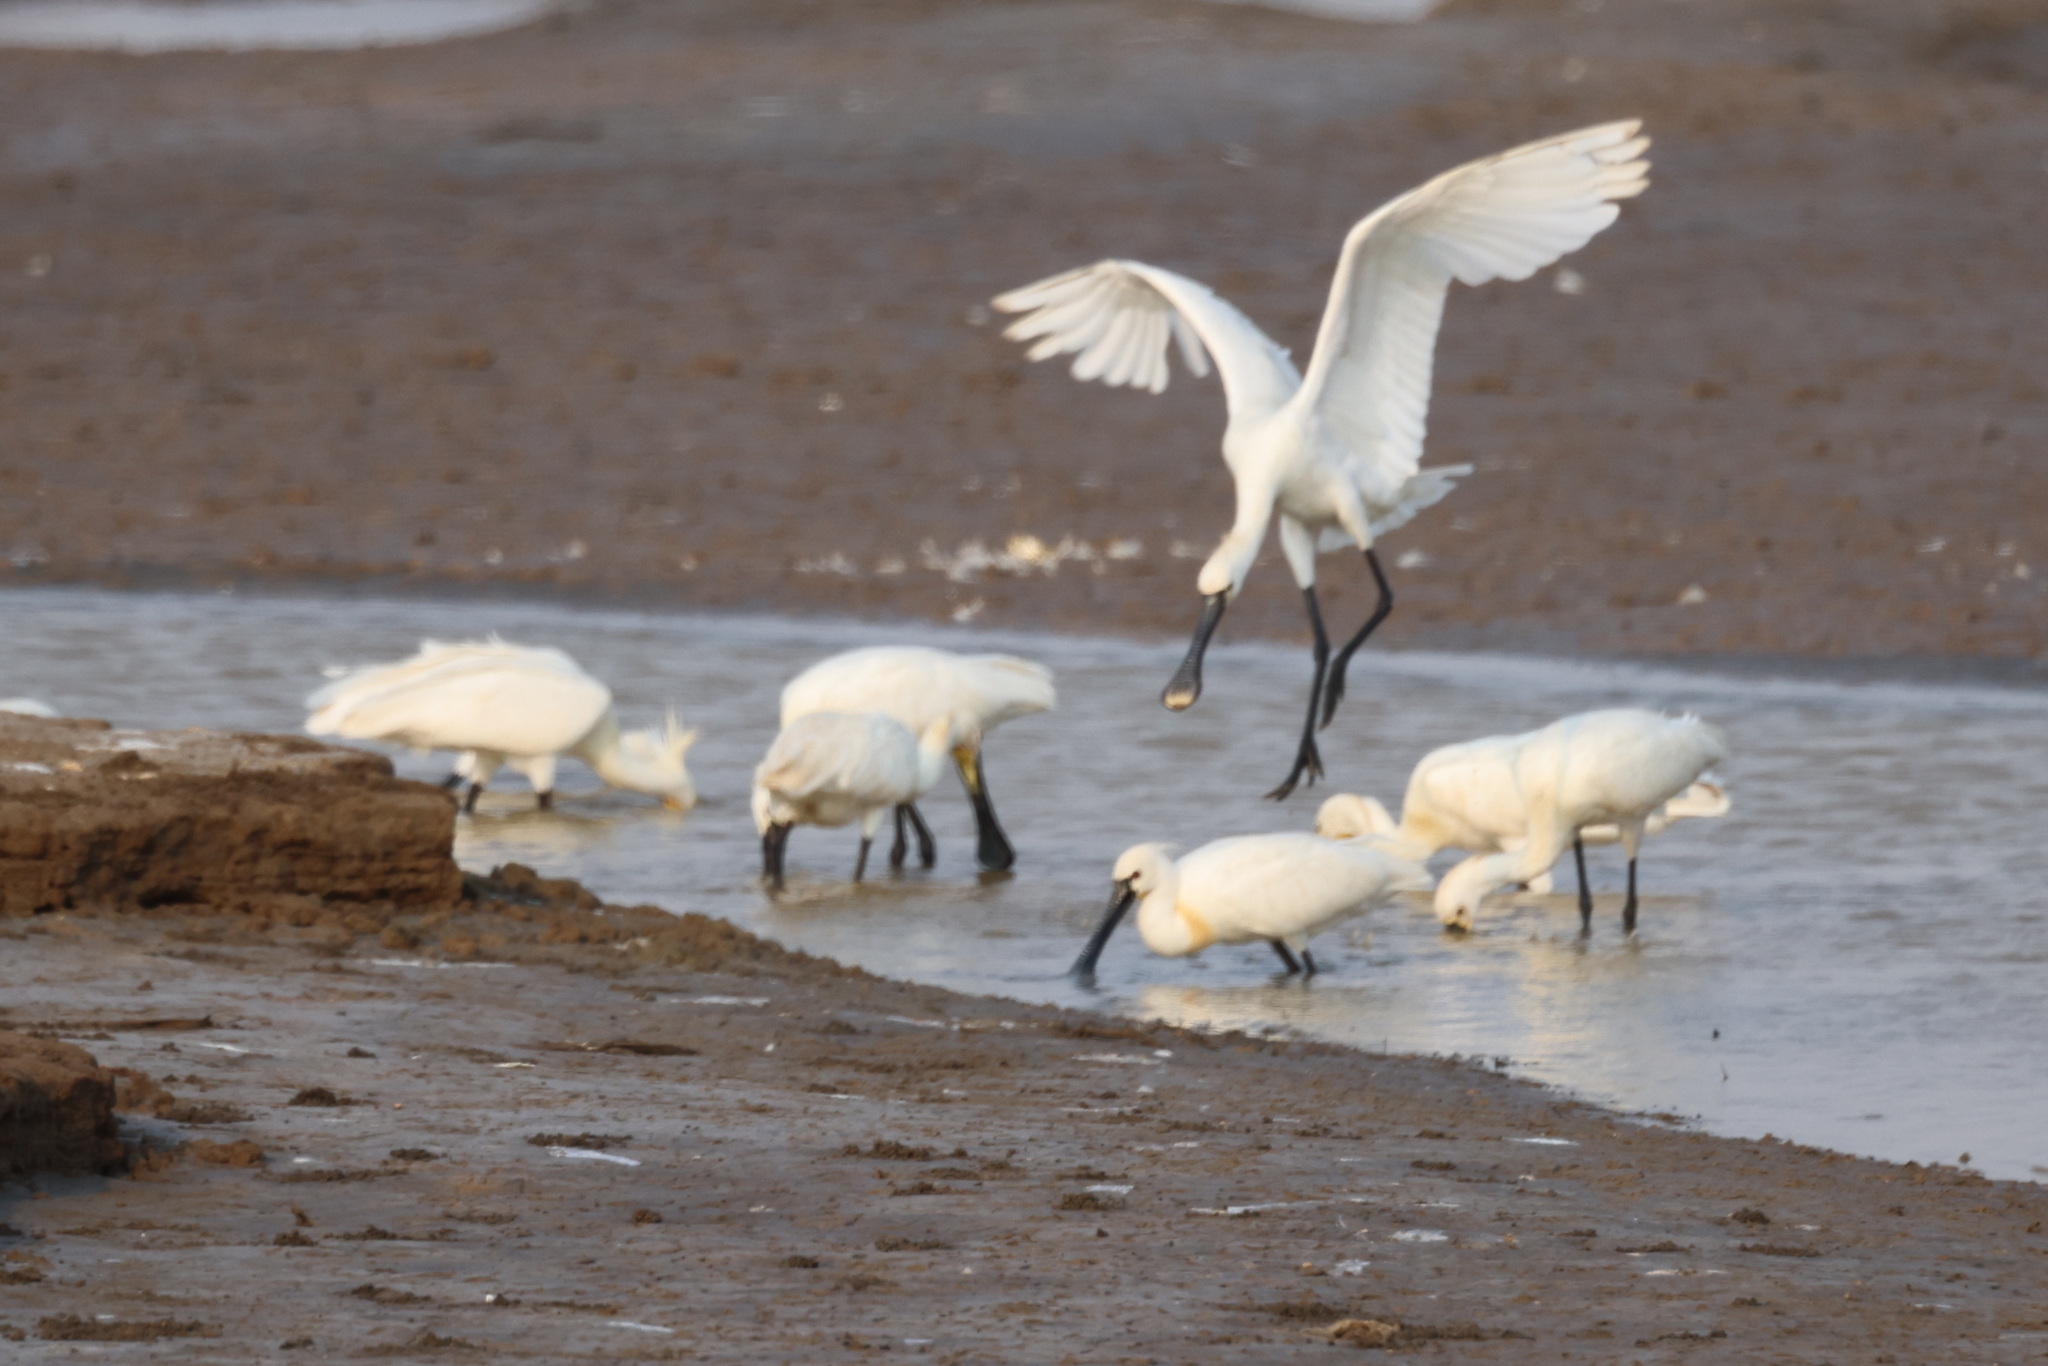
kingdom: Animalia
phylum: Chordata
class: Aves
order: Pelecaniformes
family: Threskiornithidae
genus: Platalea
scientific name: Platalea leucorodia
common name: Eurasian spoonbill
